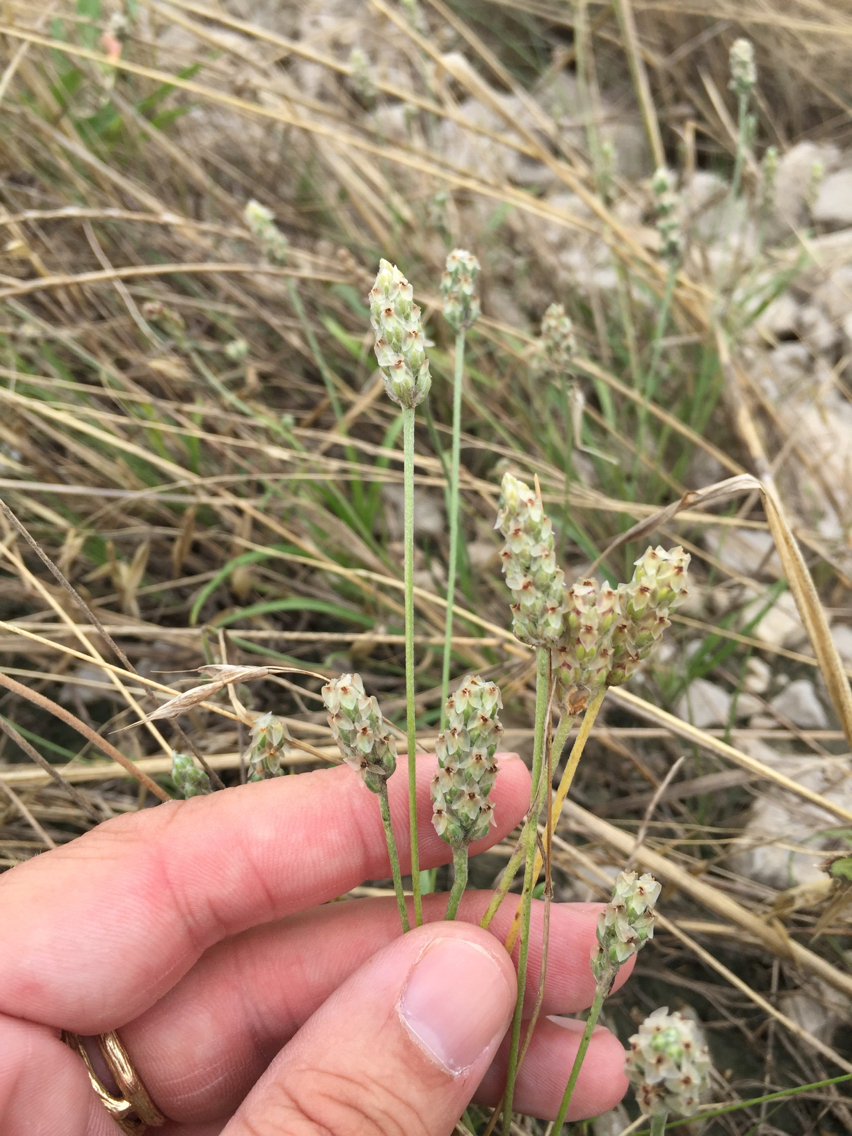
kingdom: Plantae
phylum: Tracheophyta
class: Magnoliopsida
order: Lamiales
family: Plantaginaceae
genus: Plantago
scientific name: Plantago helleri
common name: Heller's plantain
